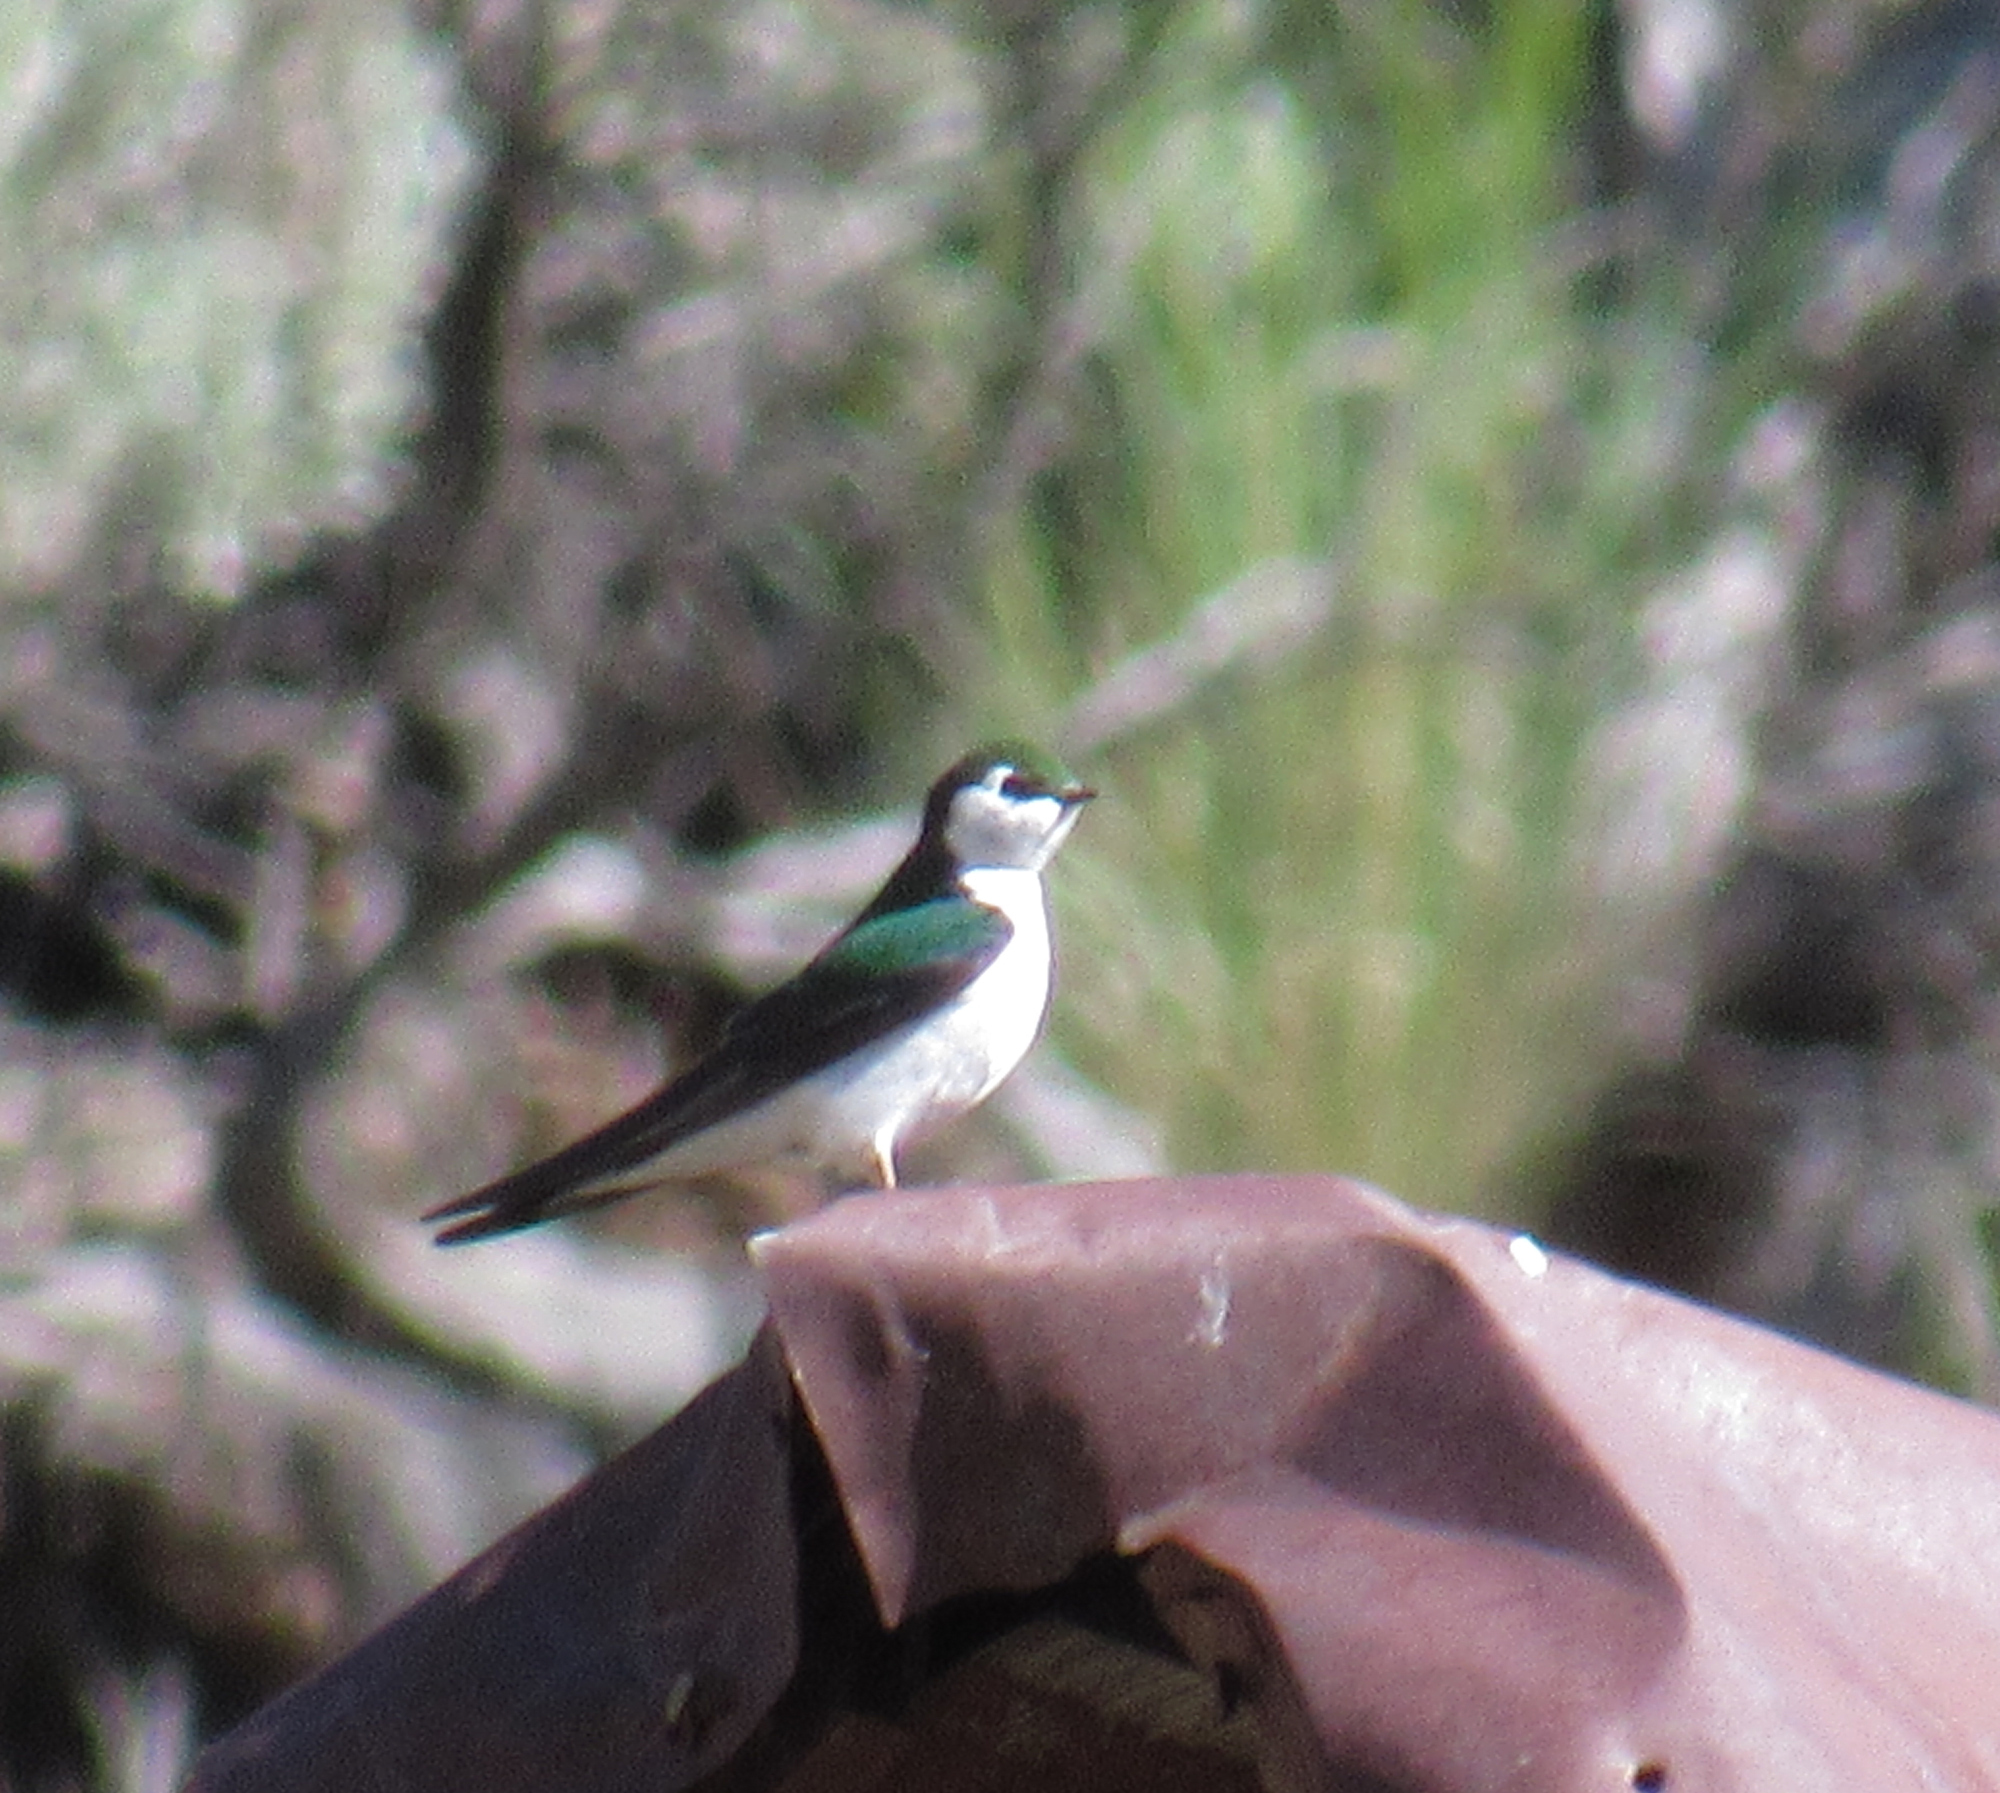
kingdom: Animalia
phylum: Chordata
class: Aves
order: Passeriformes
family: Hirundinidae
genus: Tachycineta
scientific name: Tachycineta thalassina
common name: Violet-green swallow
